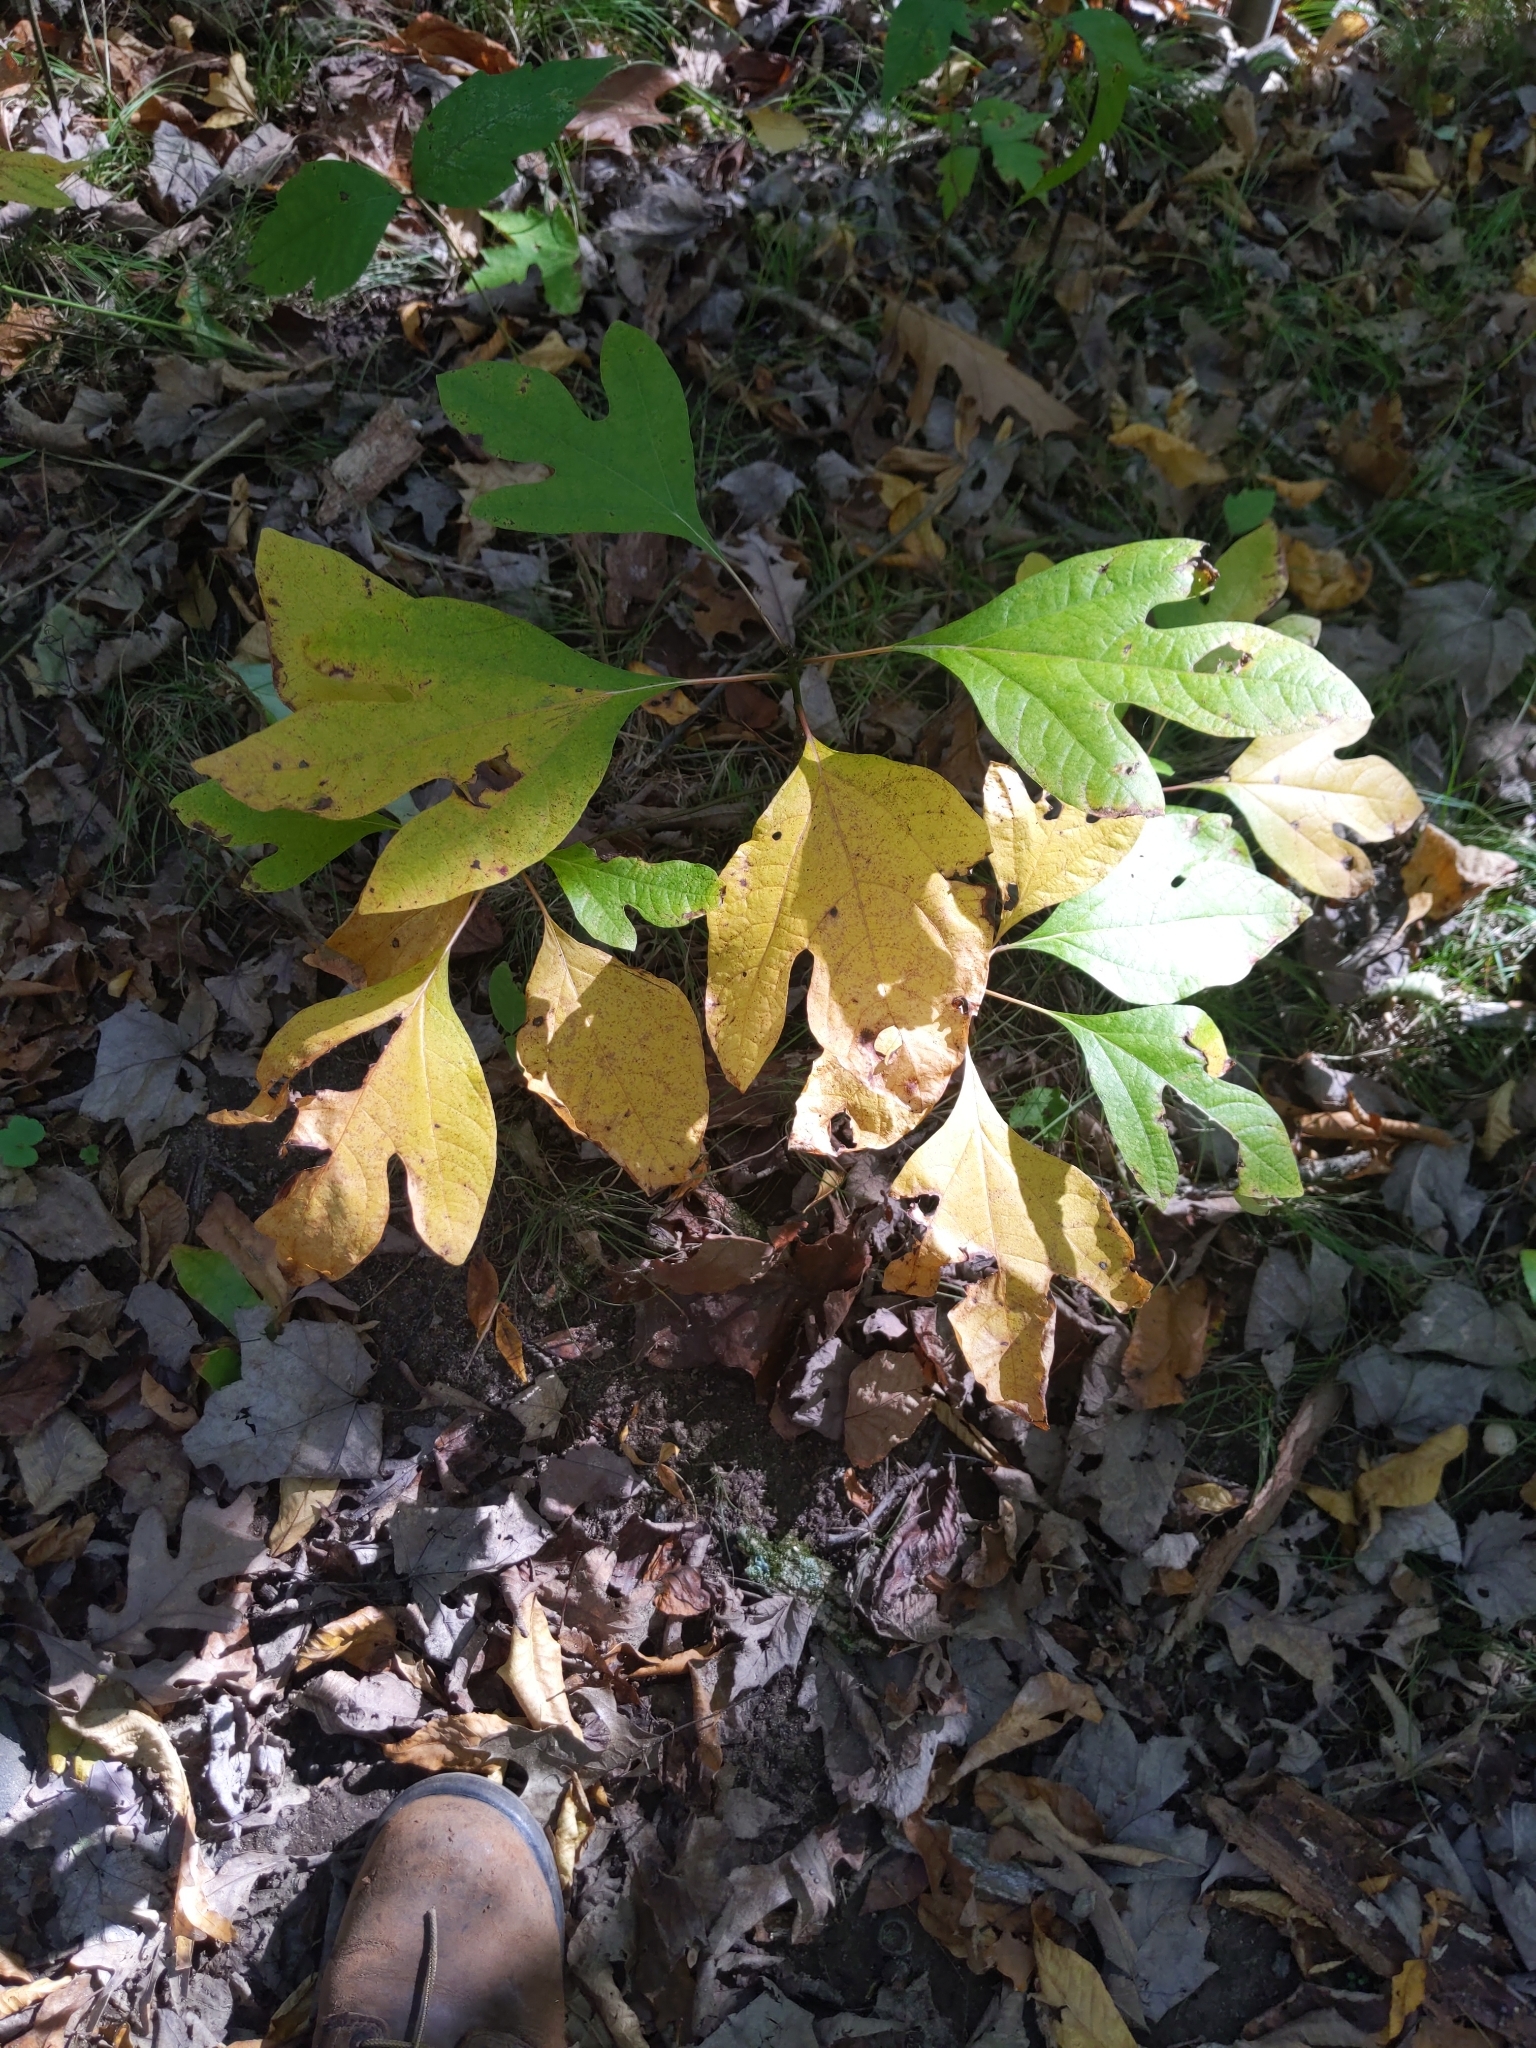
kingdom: Plantae
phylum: Tracheophyta
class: Magnoliopsida
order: Laurales
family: Lauraceae
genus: Sassafras
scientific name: Sassafras albidum
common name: Sassafras
